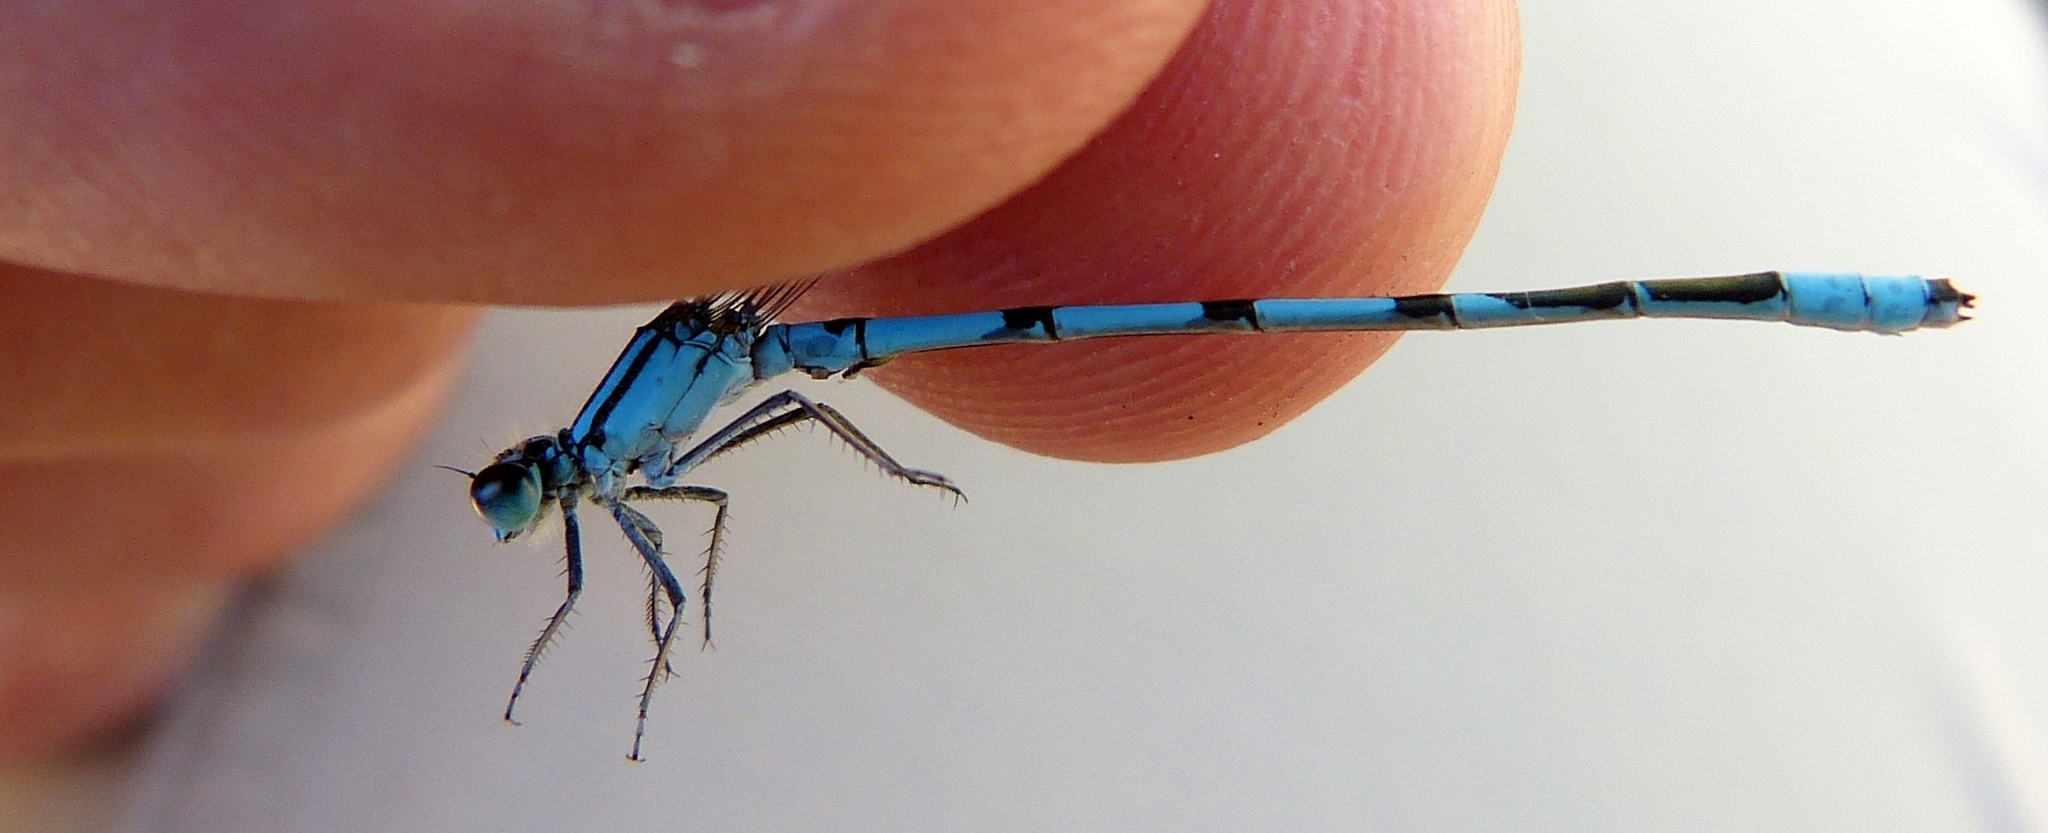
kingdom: Animalia
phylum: Arthropoda
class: Insecta
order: Odonata
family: Coenagrionidae
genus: Enallagma
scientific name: Enallagma ebrium
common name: Marsh bluet
